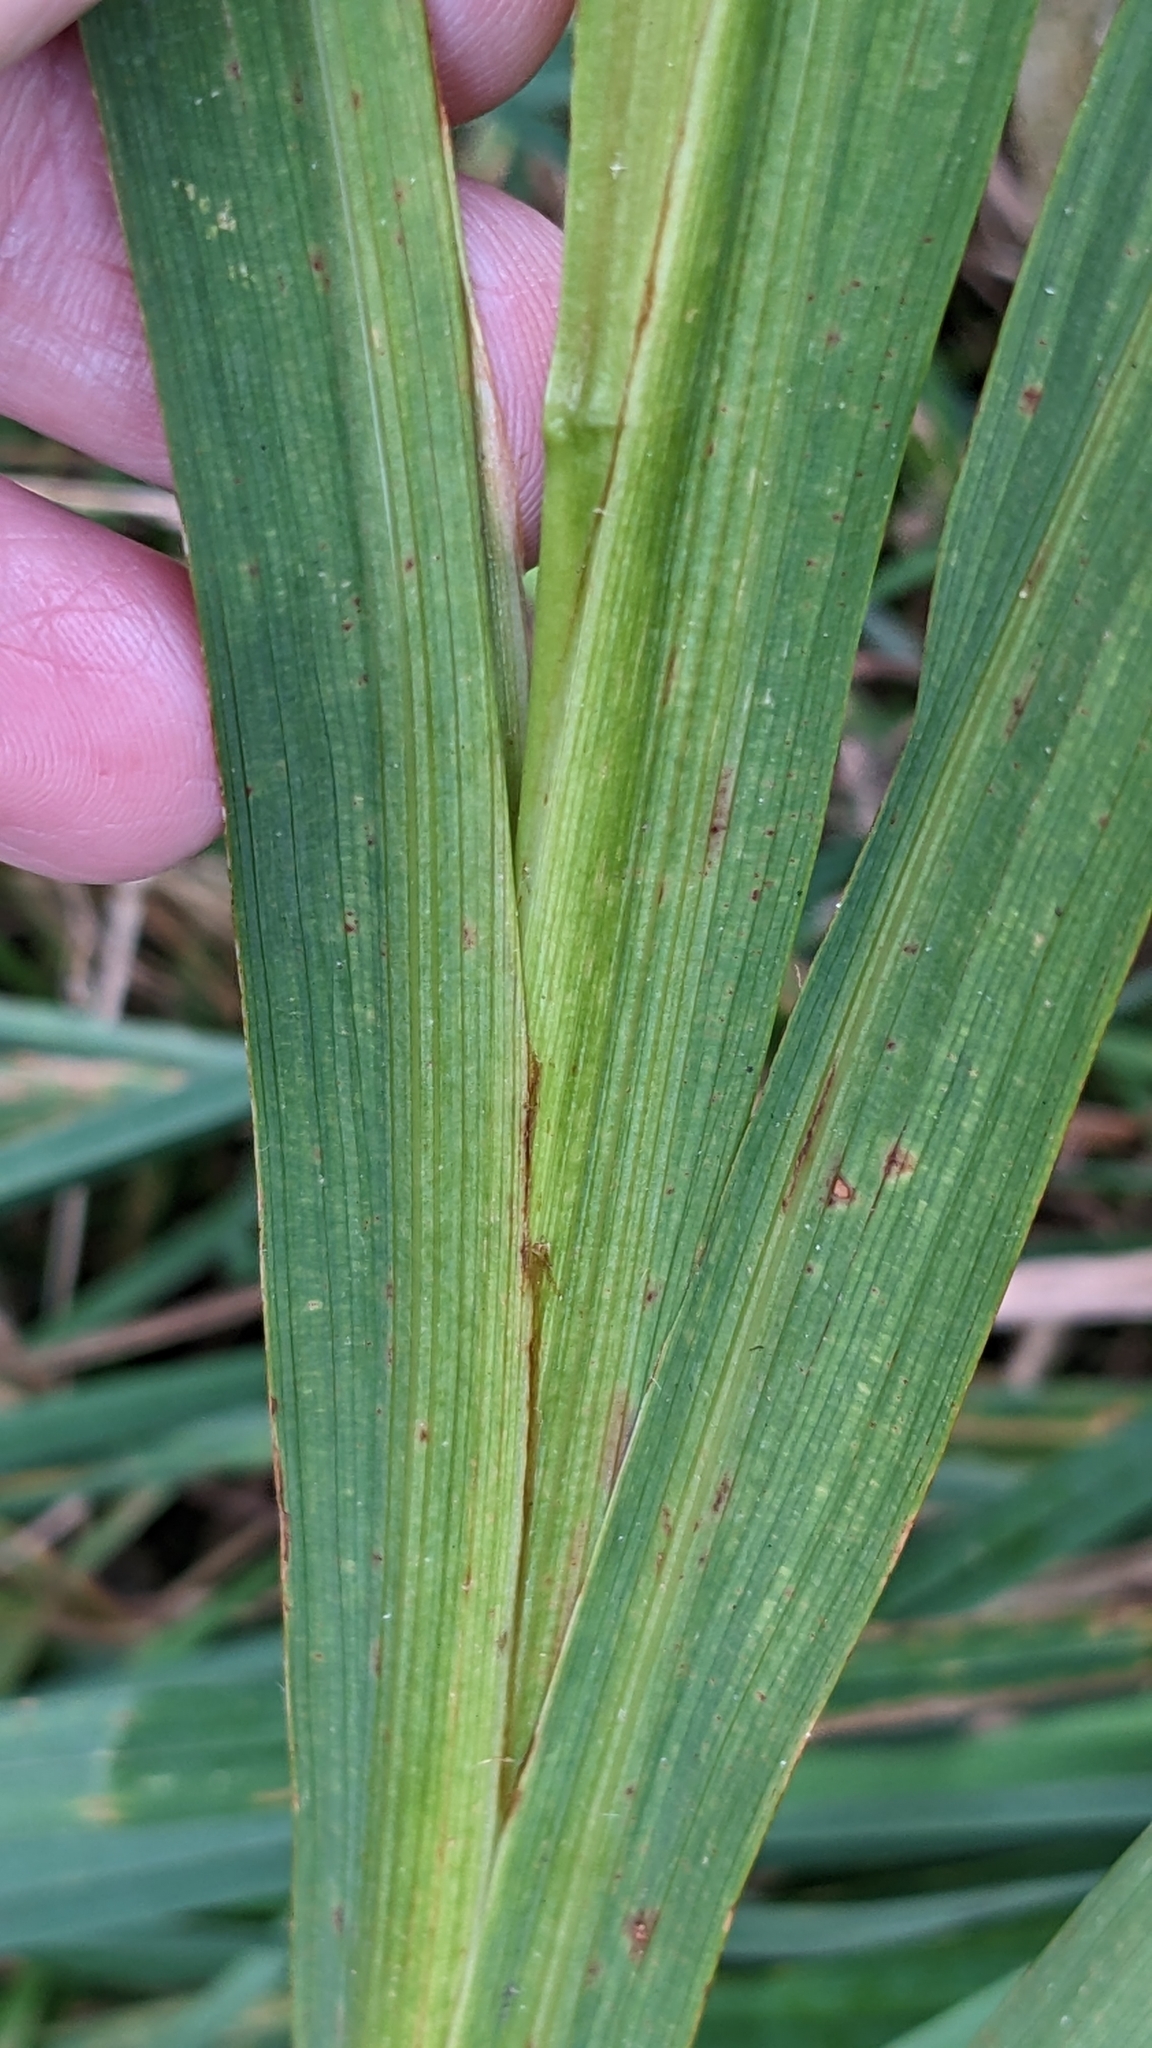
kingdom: Plantae
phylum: Tracheophyta
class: Liliopsida
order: Asparagales
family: Iridaceae
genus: Crocosmia
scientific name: Crocosmia crocosmiiflora
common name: Montbretia
